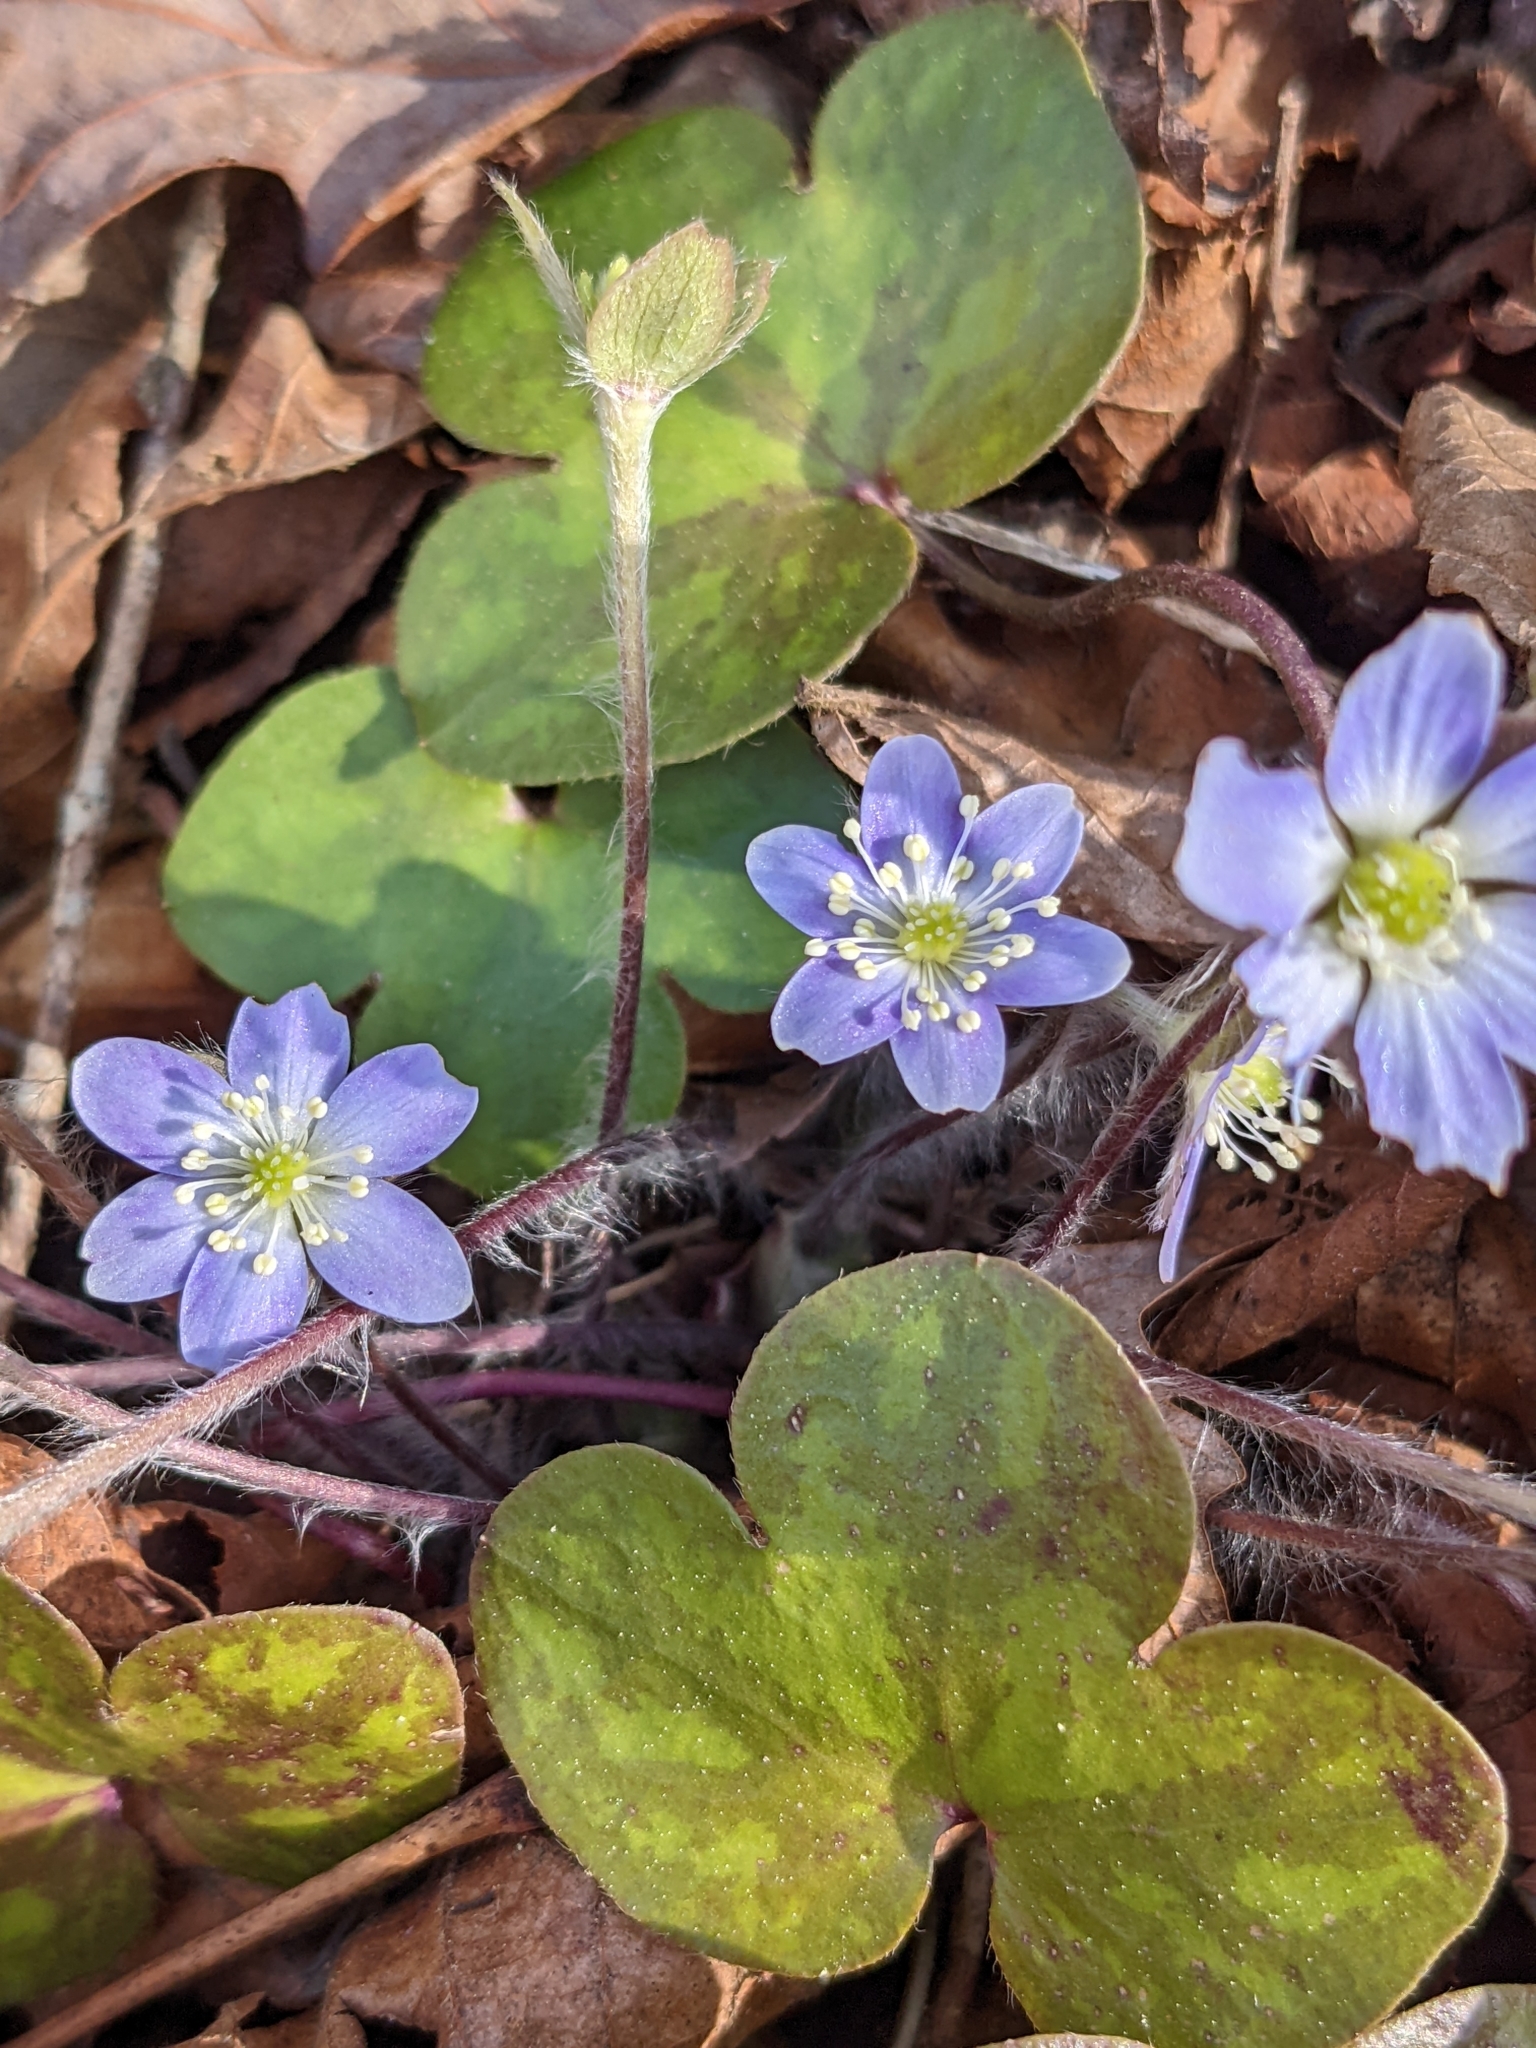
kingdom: Plantae
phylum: Tracheophyta
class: Magnoliopsida
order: Ranunculales
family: Ranunculaceae
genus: Hepatica
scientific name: Hepatica americana
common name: American hepatica
